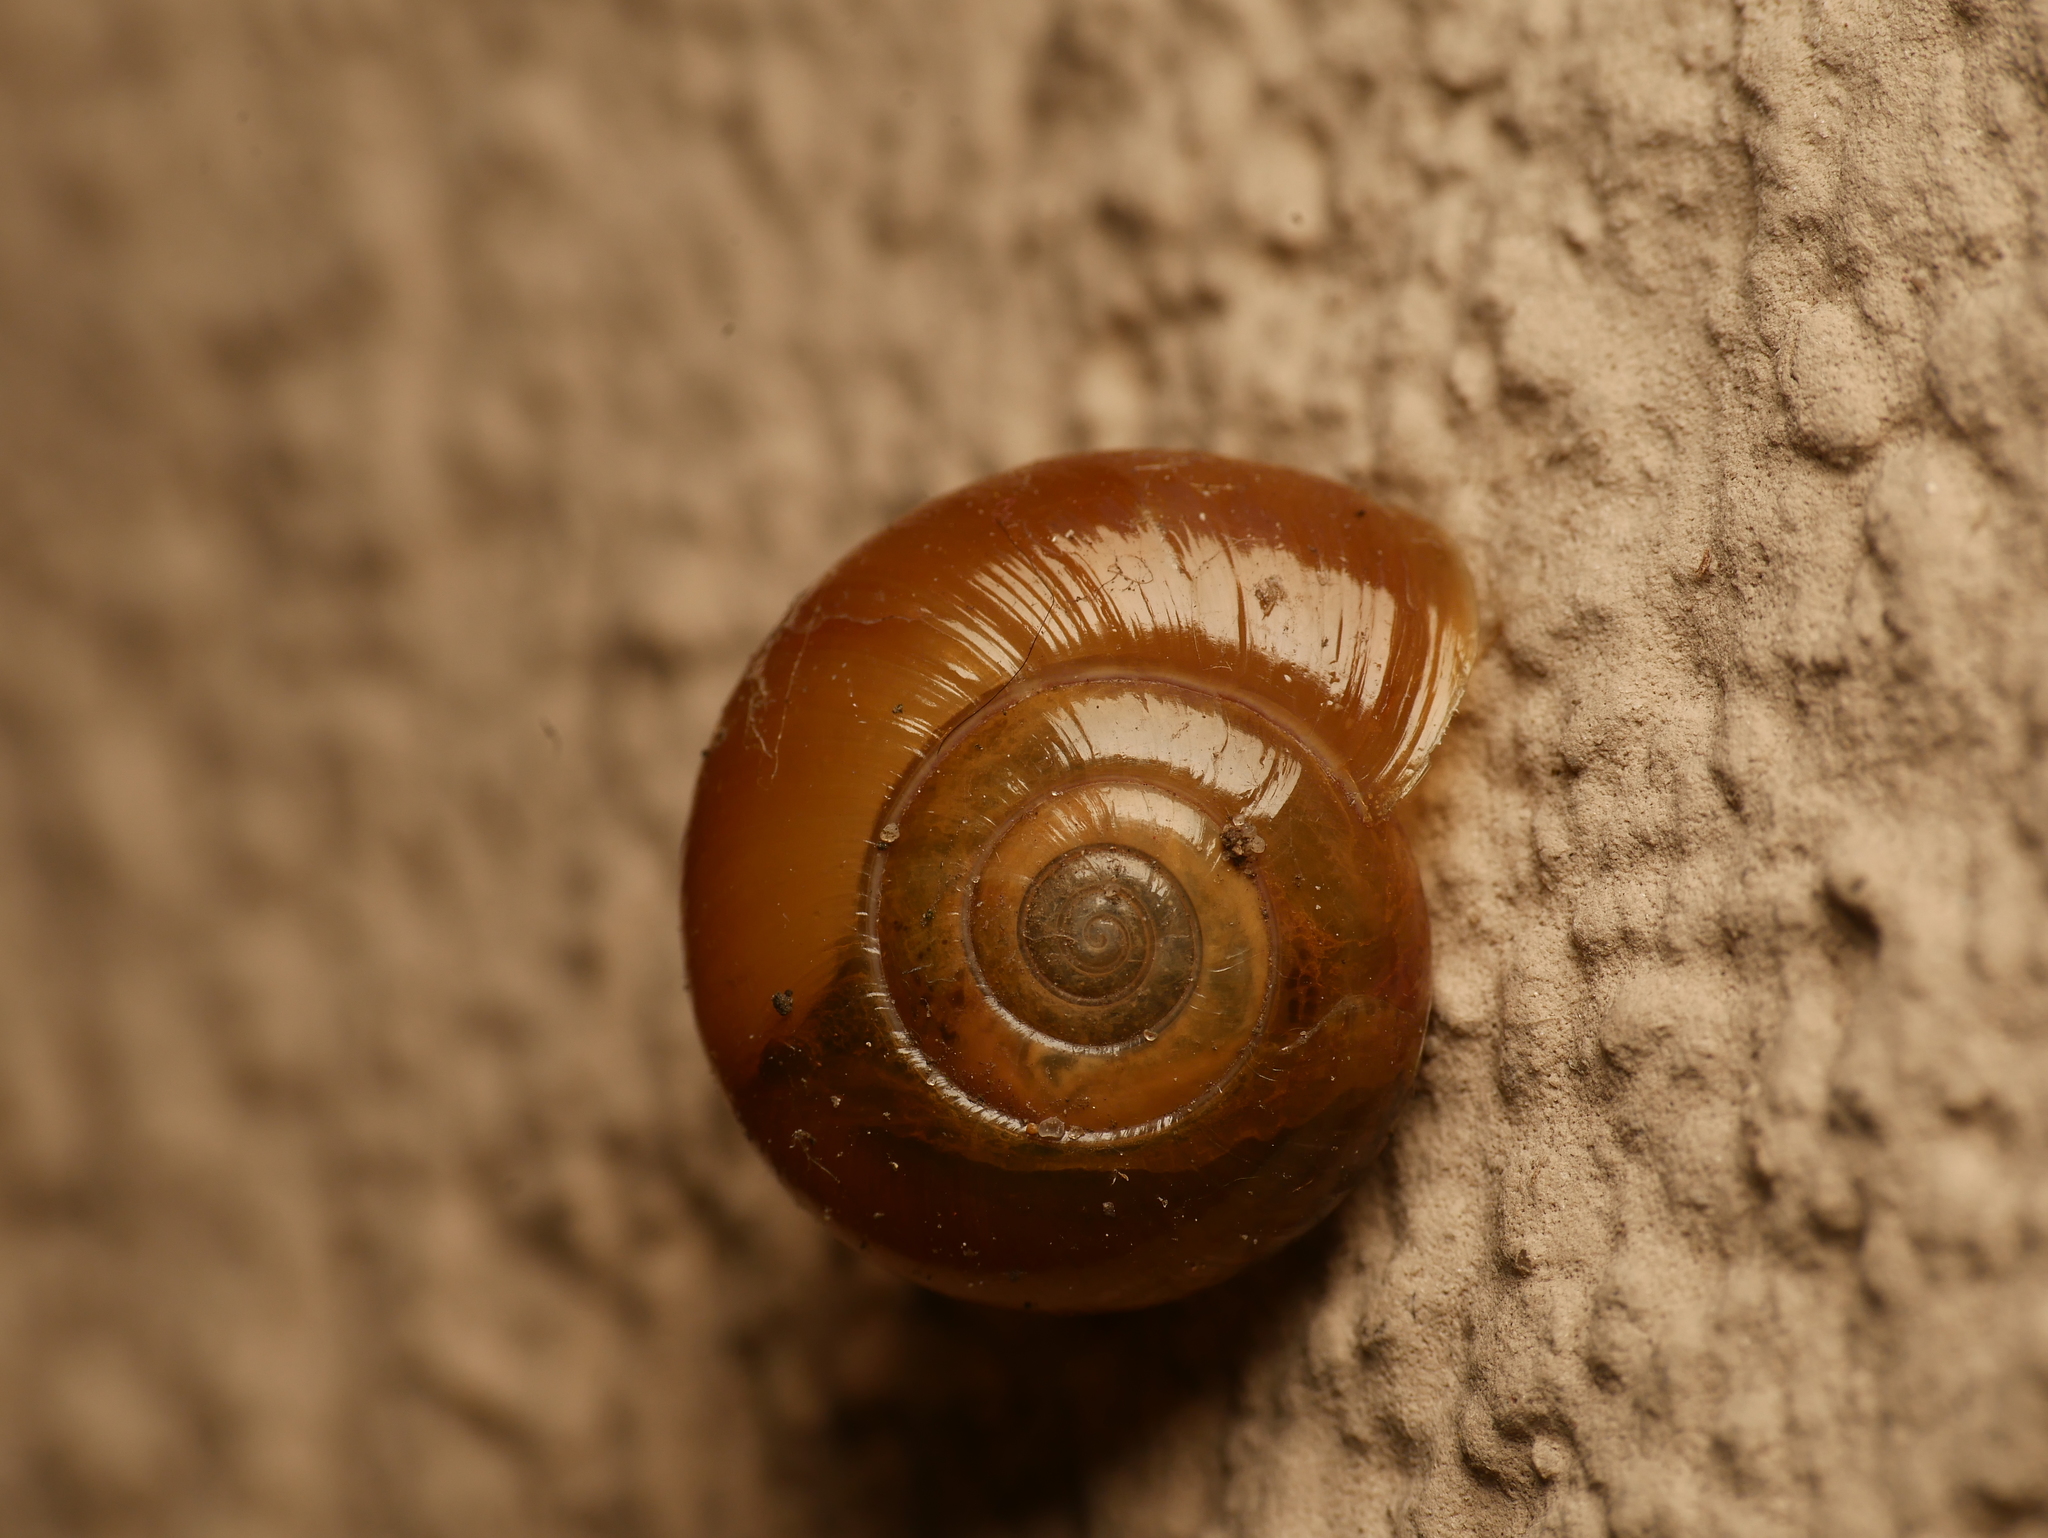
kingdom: Animalia
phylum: Mollusca
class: Gastropoda
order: Stylommatophora
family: Oxychilidae
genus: Oxychilus
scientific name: Oxychilus draparnaudi
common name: Draparnaud's glass snail
